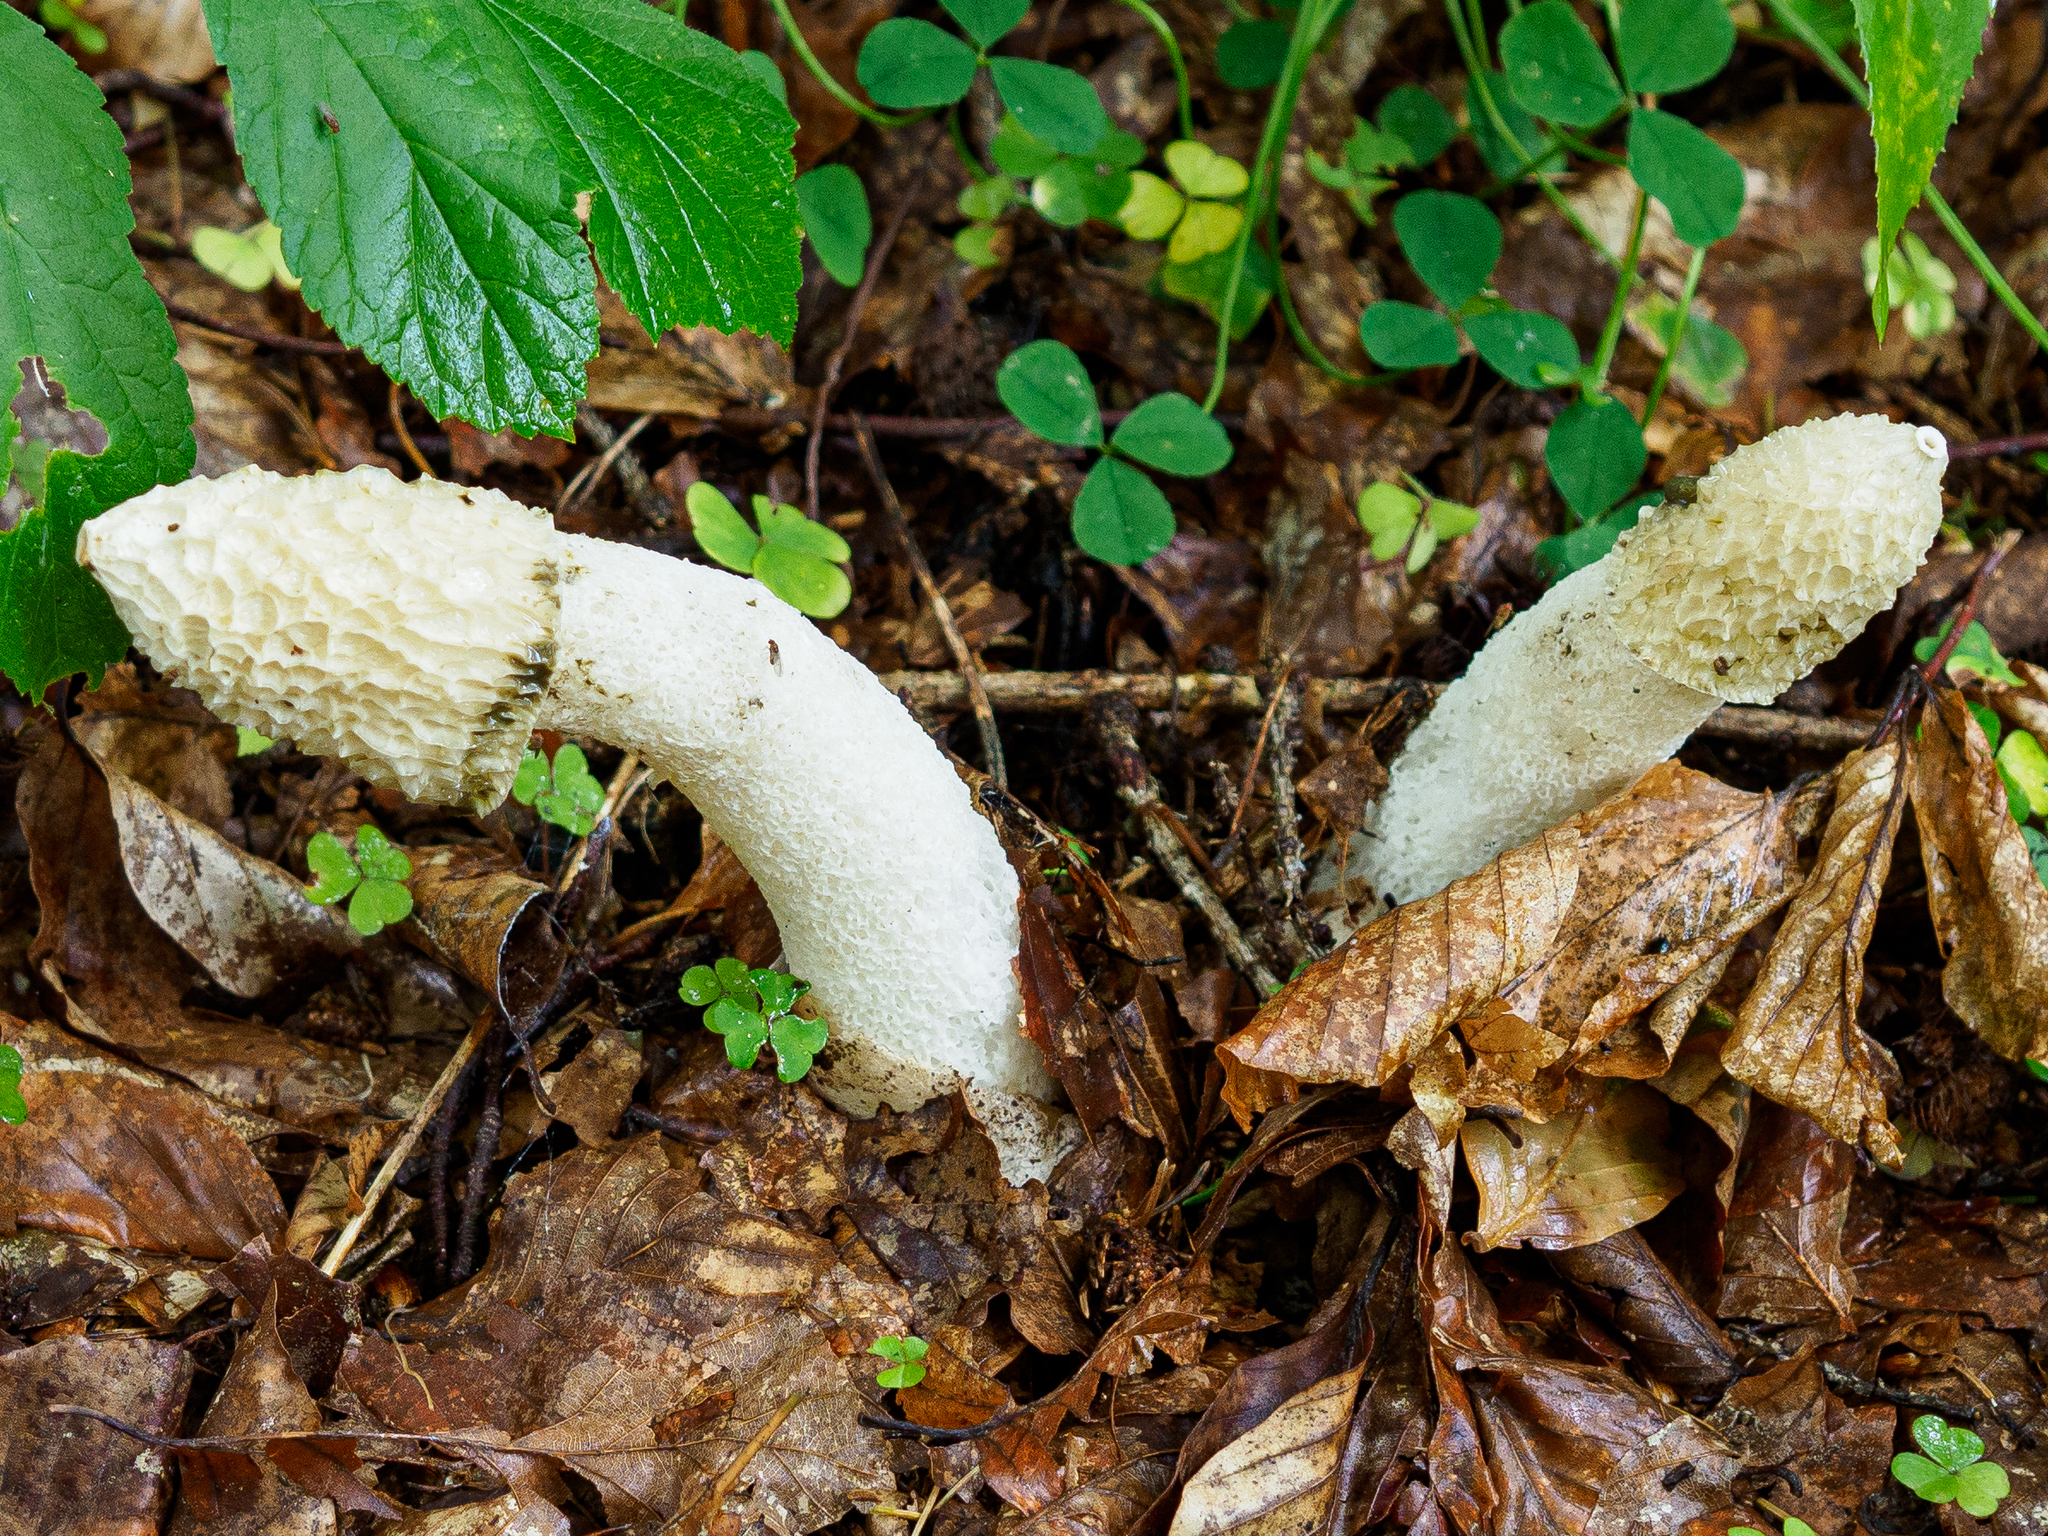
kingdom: Fungi
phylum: Basidiomycota
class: Agaricomycetes
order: Phallales
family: Phallaceae
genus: Phallus
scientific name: Phallus impudicus
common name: Common stinkhorn
